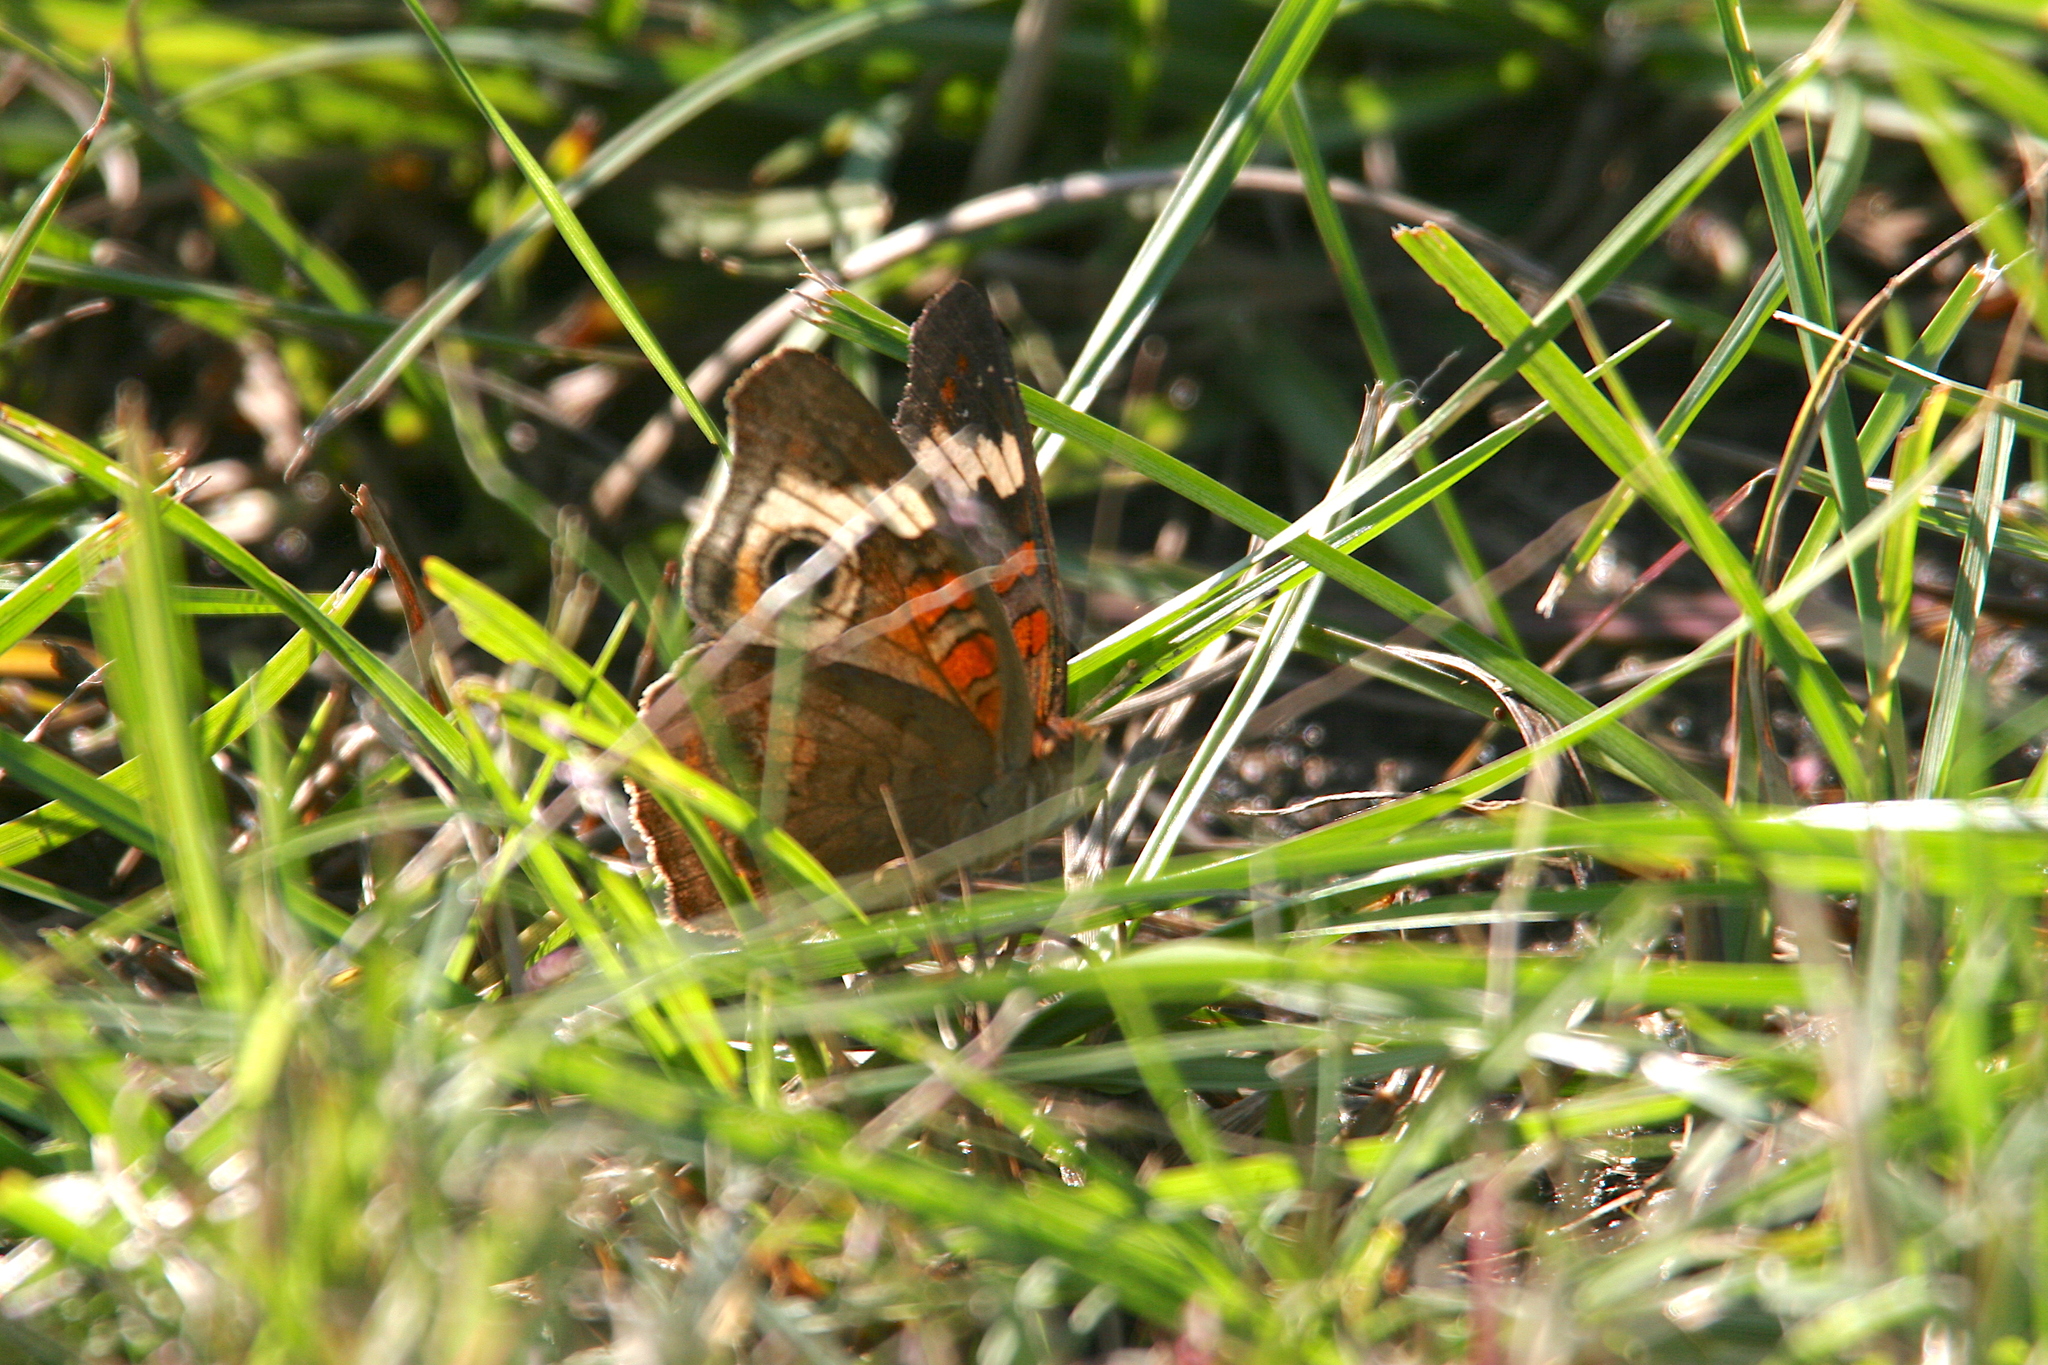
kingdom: Animalia
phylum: Arthropoda
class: Insecta
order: Lepidoptera
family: Nymphalidae
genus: Junonia
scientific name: Junonia coenia
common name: Common buckeye
